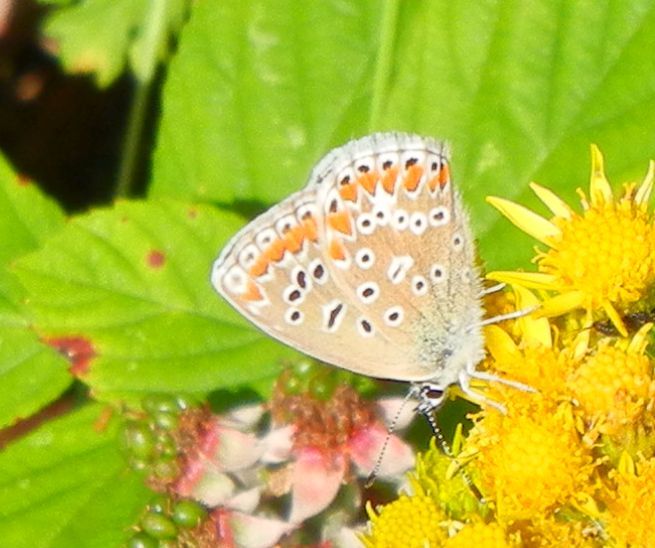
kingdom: Animalia
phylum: Arthropoda
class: Insecta
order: Lepidoptera
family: Lycaenidae
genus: Polyommatus
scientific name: Polyommatus icarus
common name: Common blue
